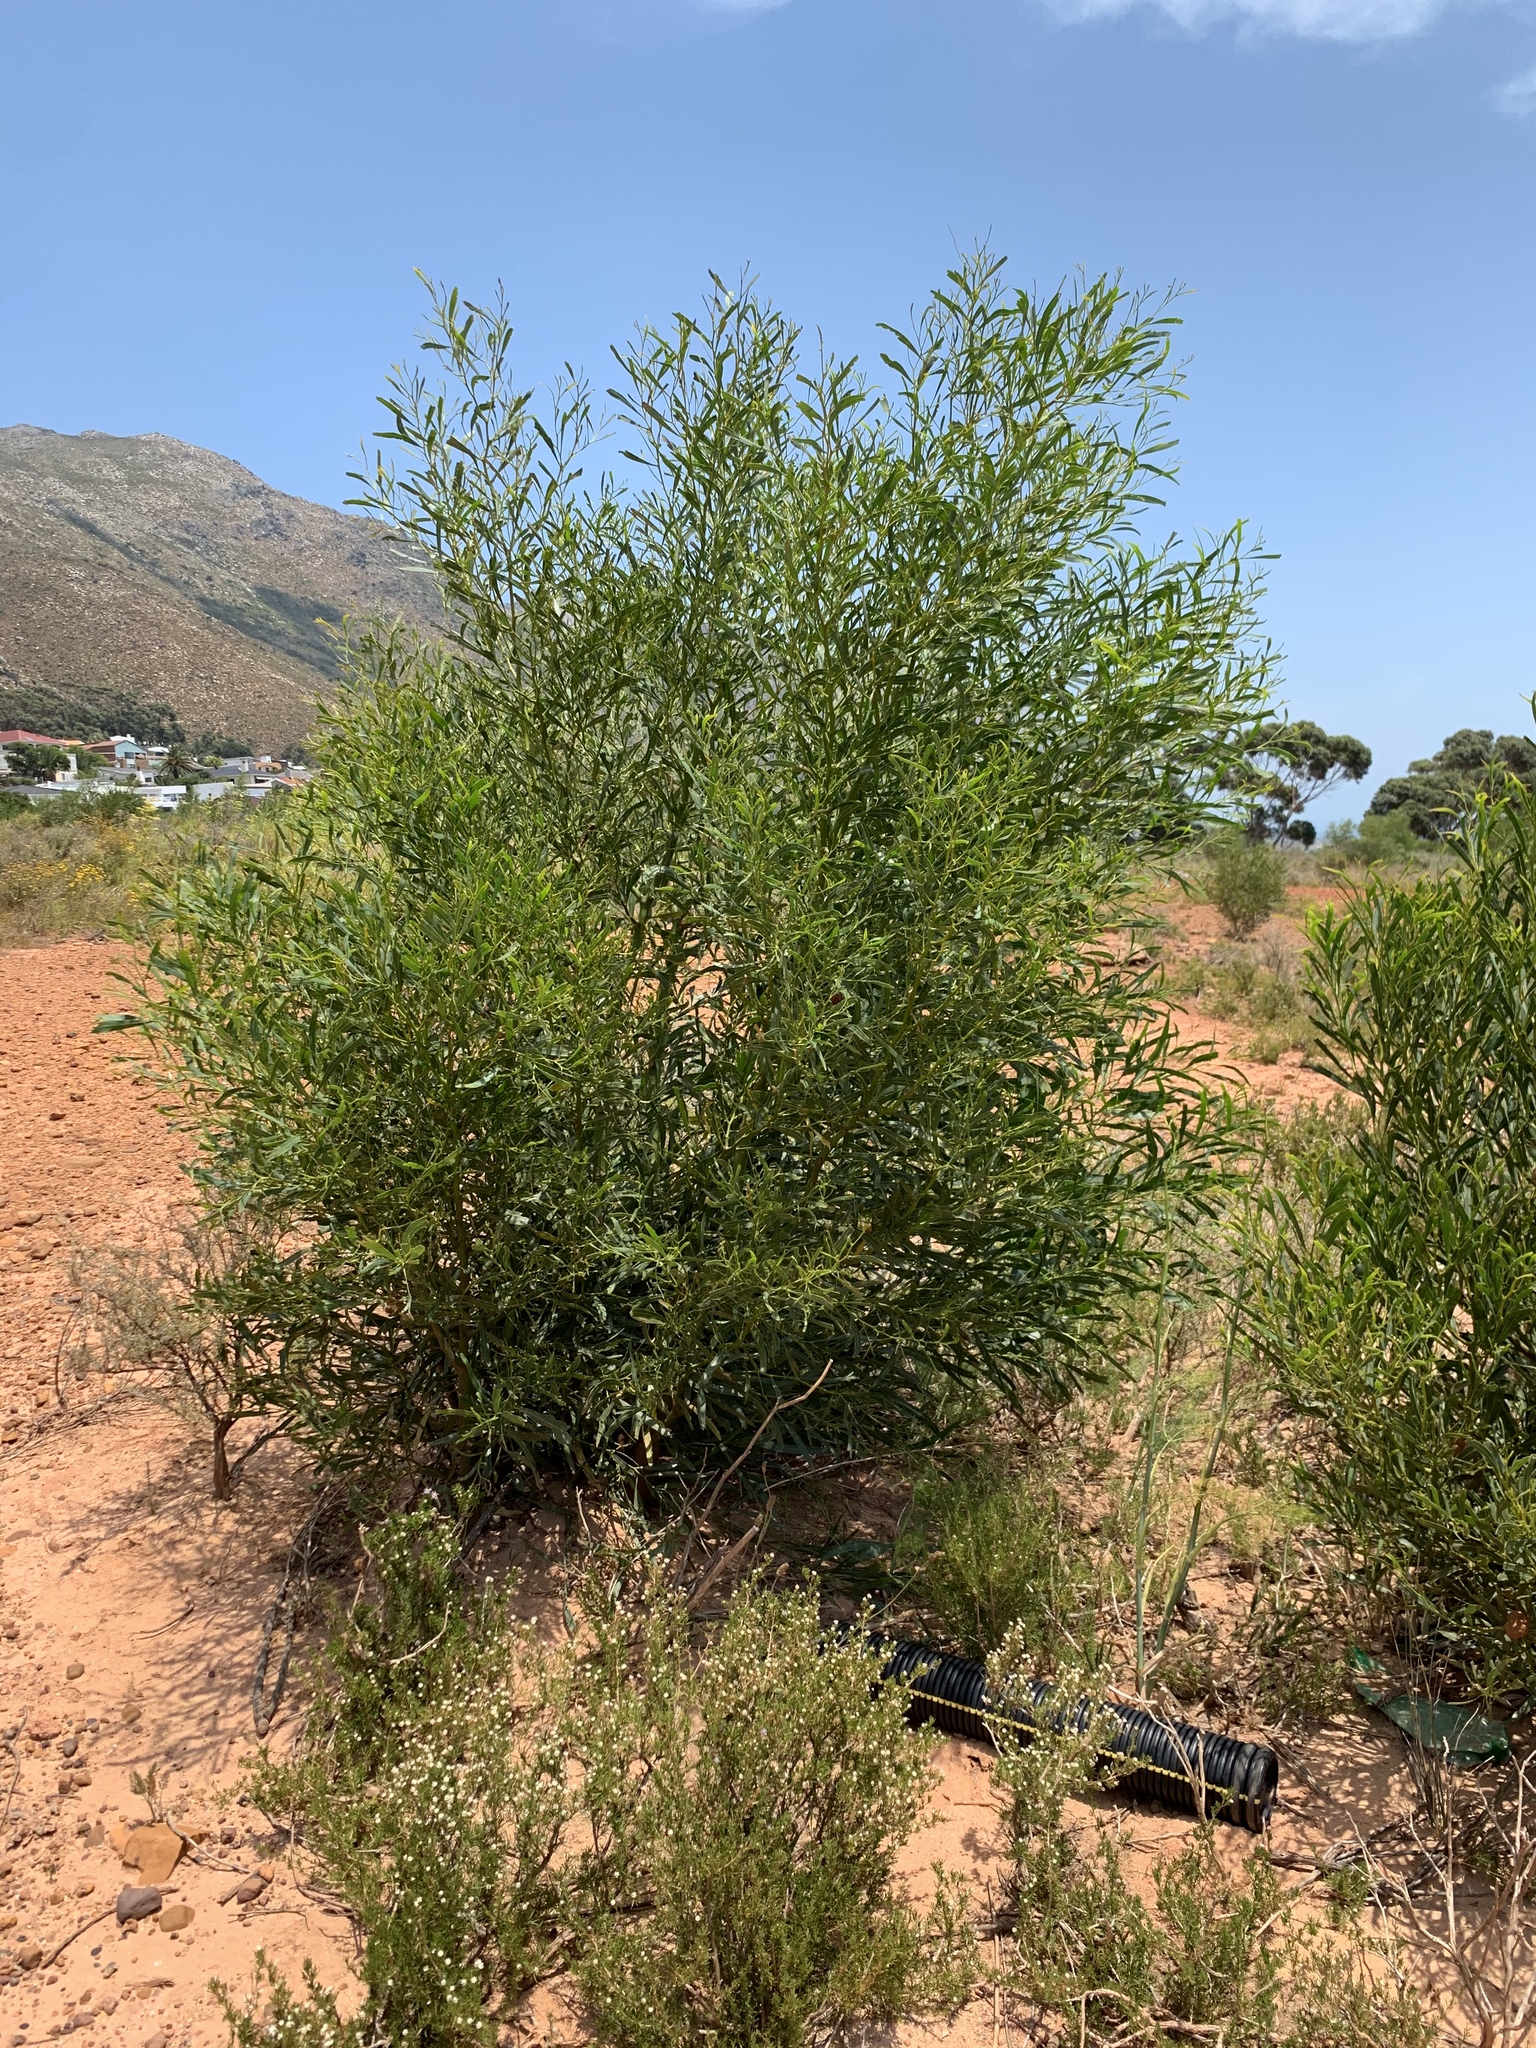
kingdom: Plantae
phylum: Tracheophyta
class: Magnoliopsida
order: Fabales
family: Fabaceae
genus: Acacia
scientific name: Acacia saligna
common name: Orange wattle
